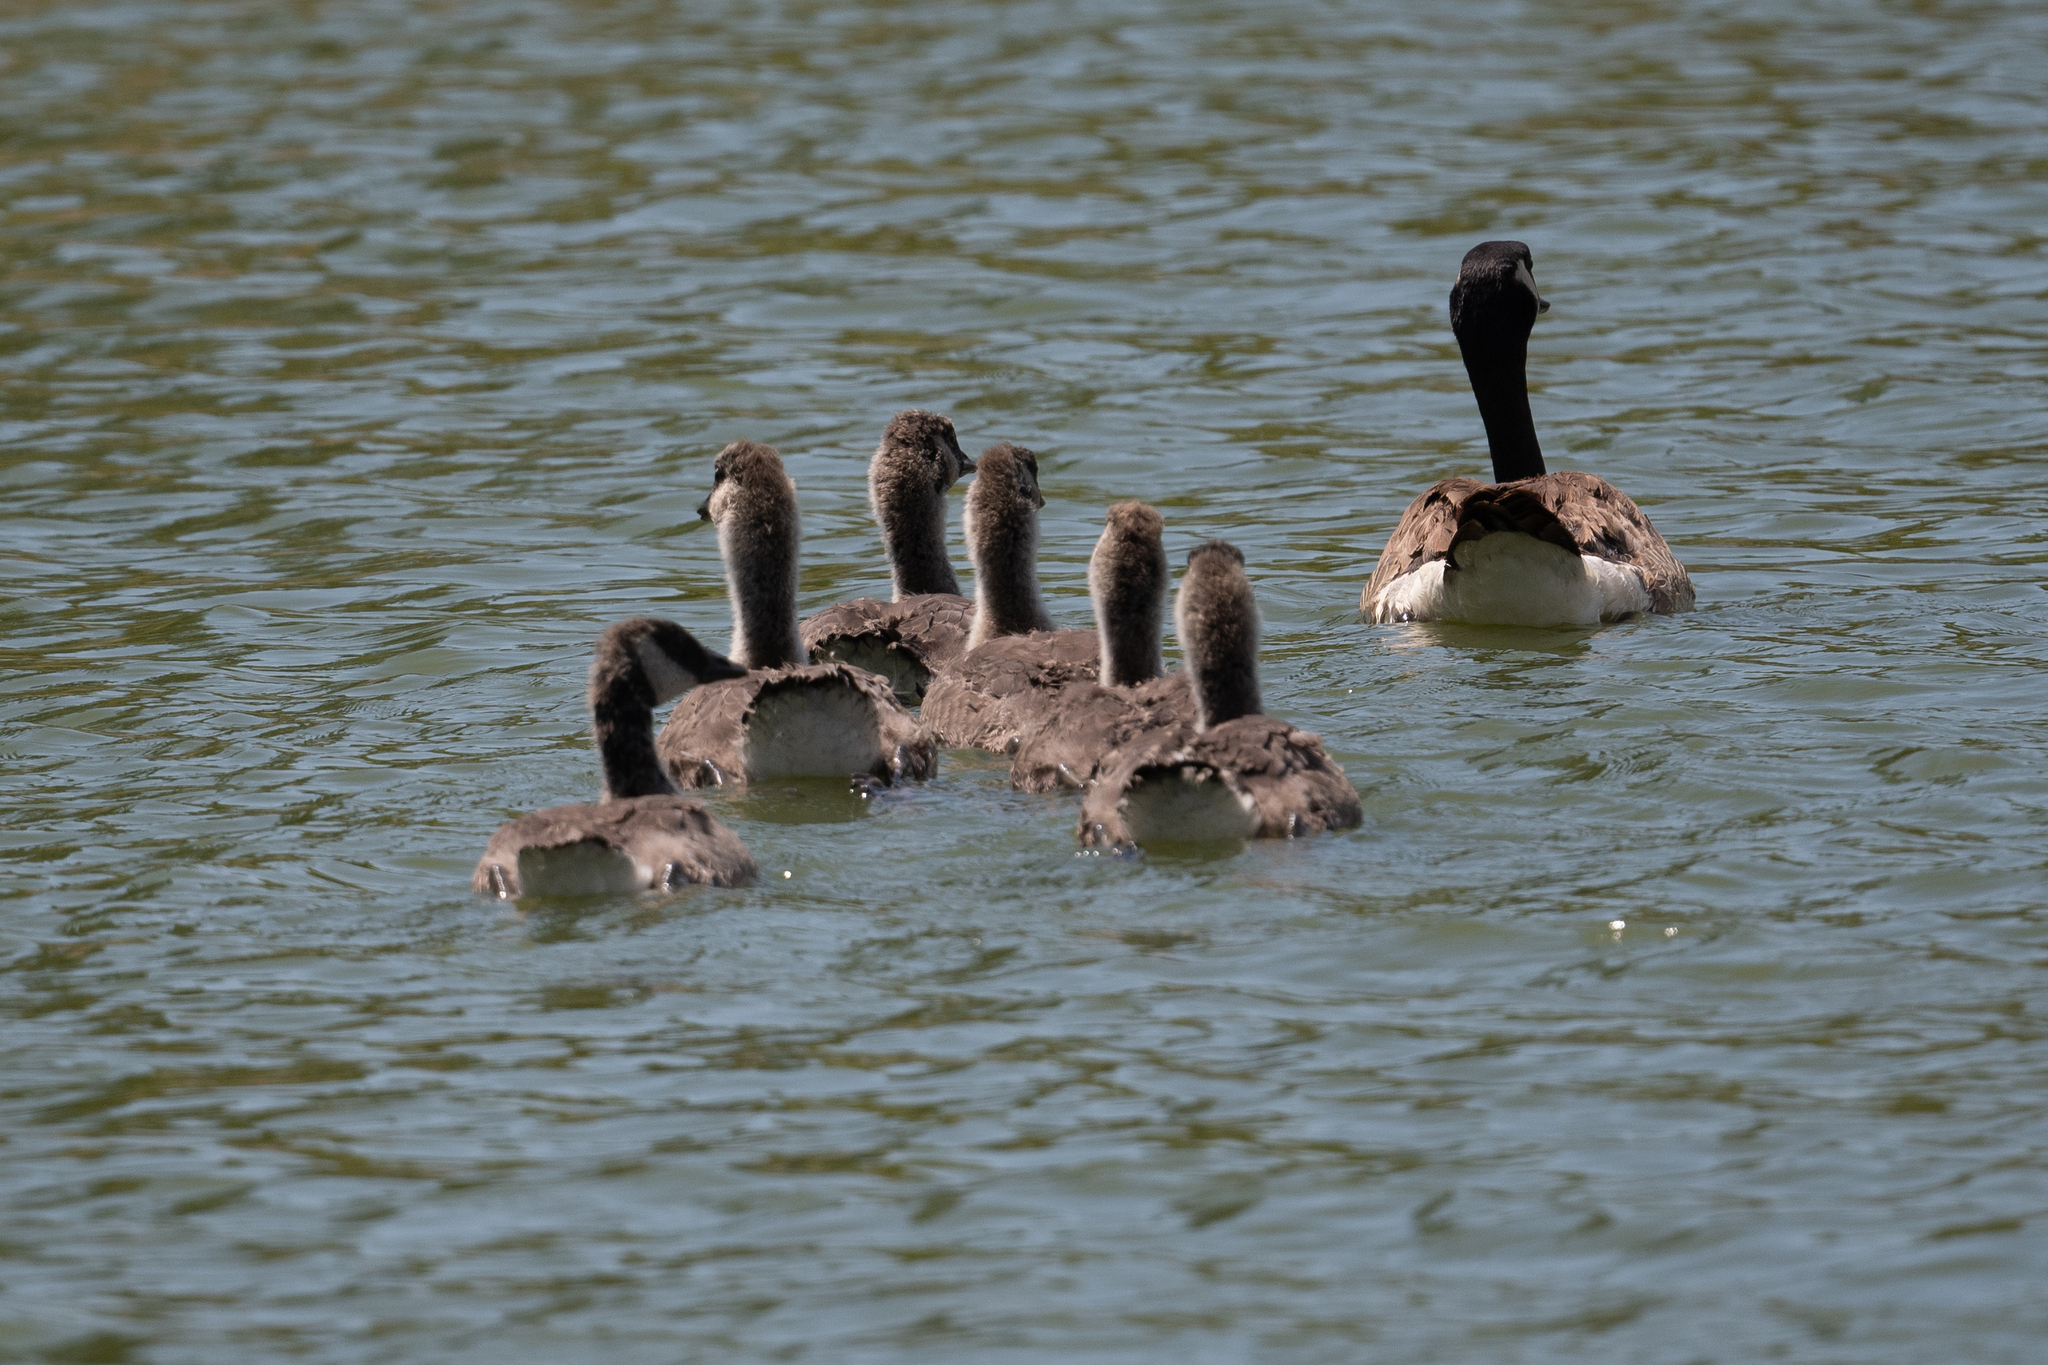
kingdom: Animalia
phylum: Chordata
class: Aves
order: Anseriformes
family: Anatidae
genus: Branta
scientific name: Branta canadensis
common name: Canada goose
